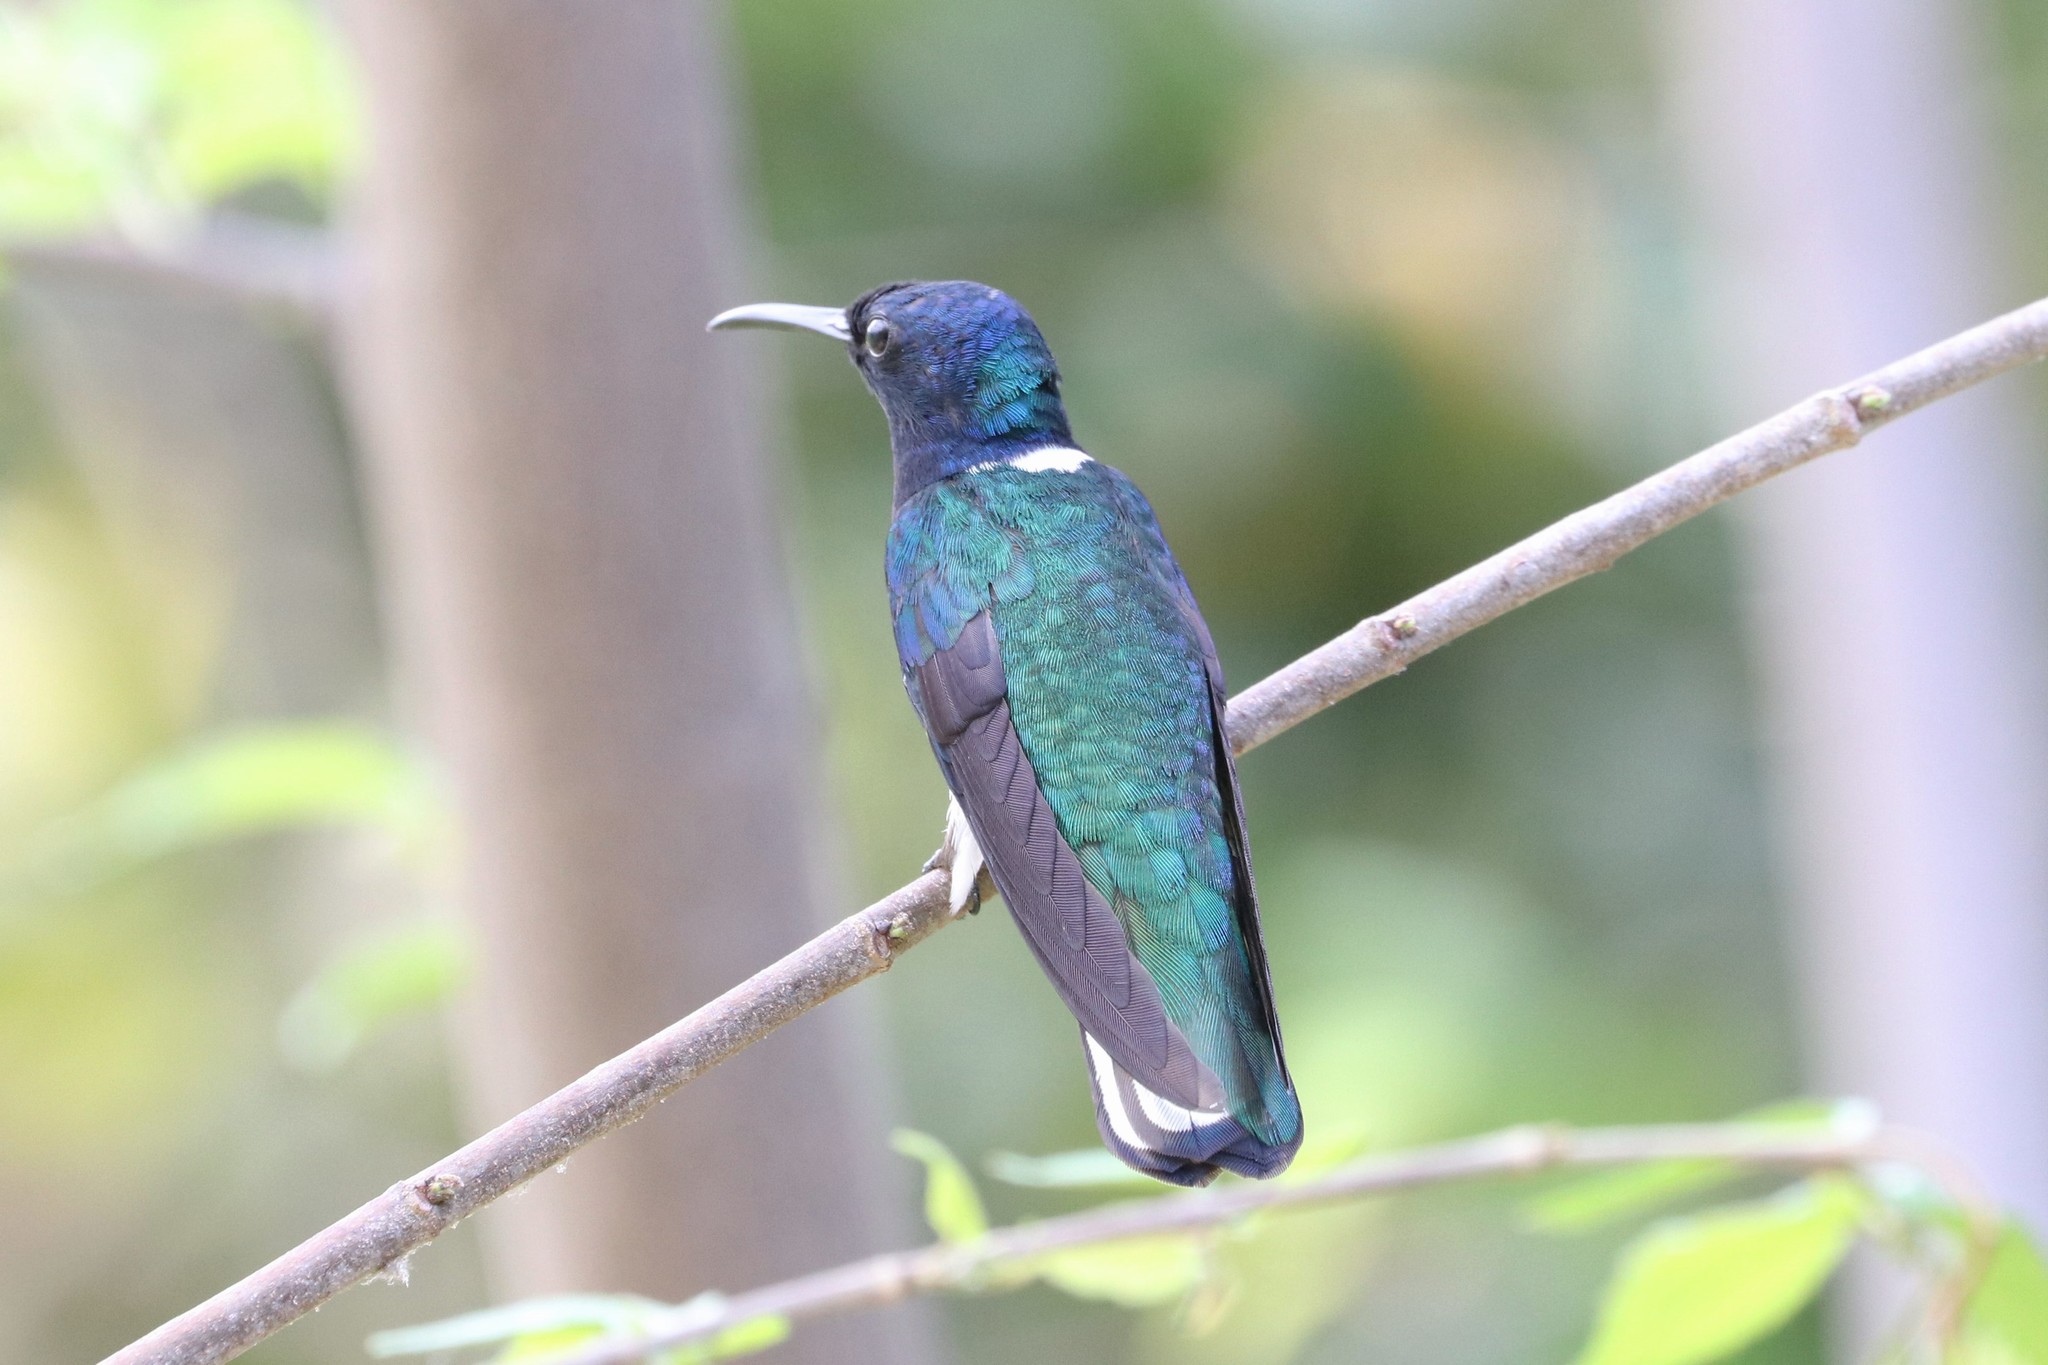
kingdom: Animalia
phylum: Chordata
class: Aves
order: Apodiformes
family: Trochilidae
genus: Florisuga
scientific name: Florisuga mellivora
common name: White-necked jacobin
